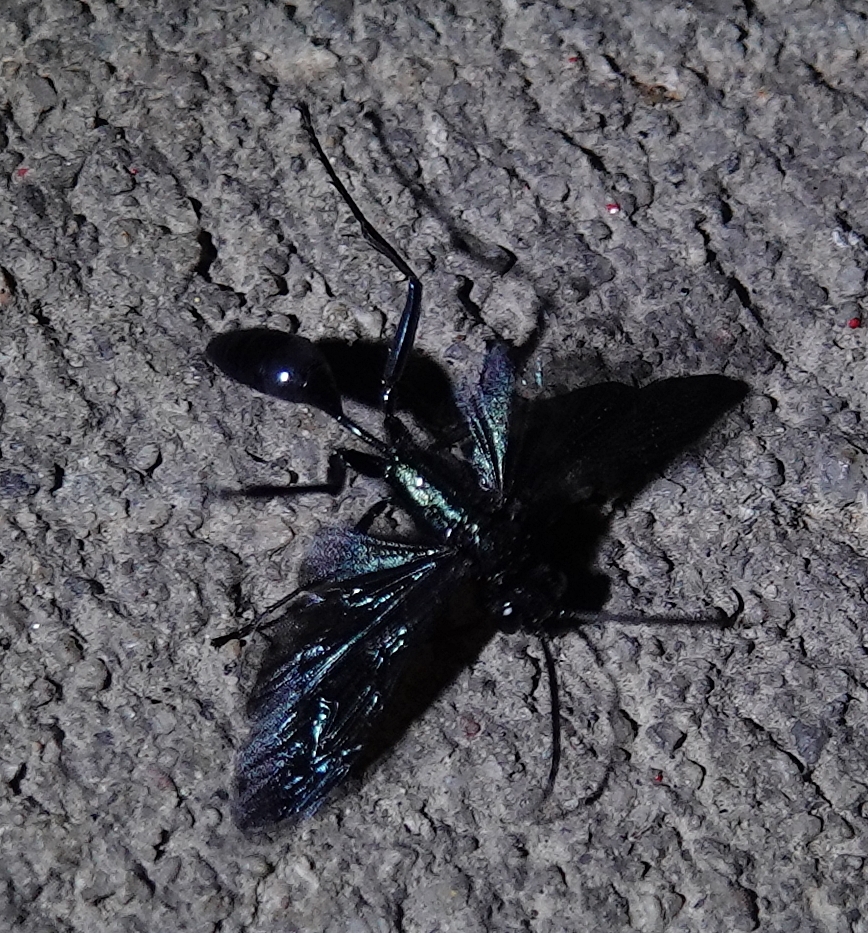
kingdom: Animalia
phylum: Arthropoda
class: Insecta
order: Hymenoptera
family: Sphecidae
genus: Chalybion
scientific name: Chalybion californicum
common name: Mud dauber
